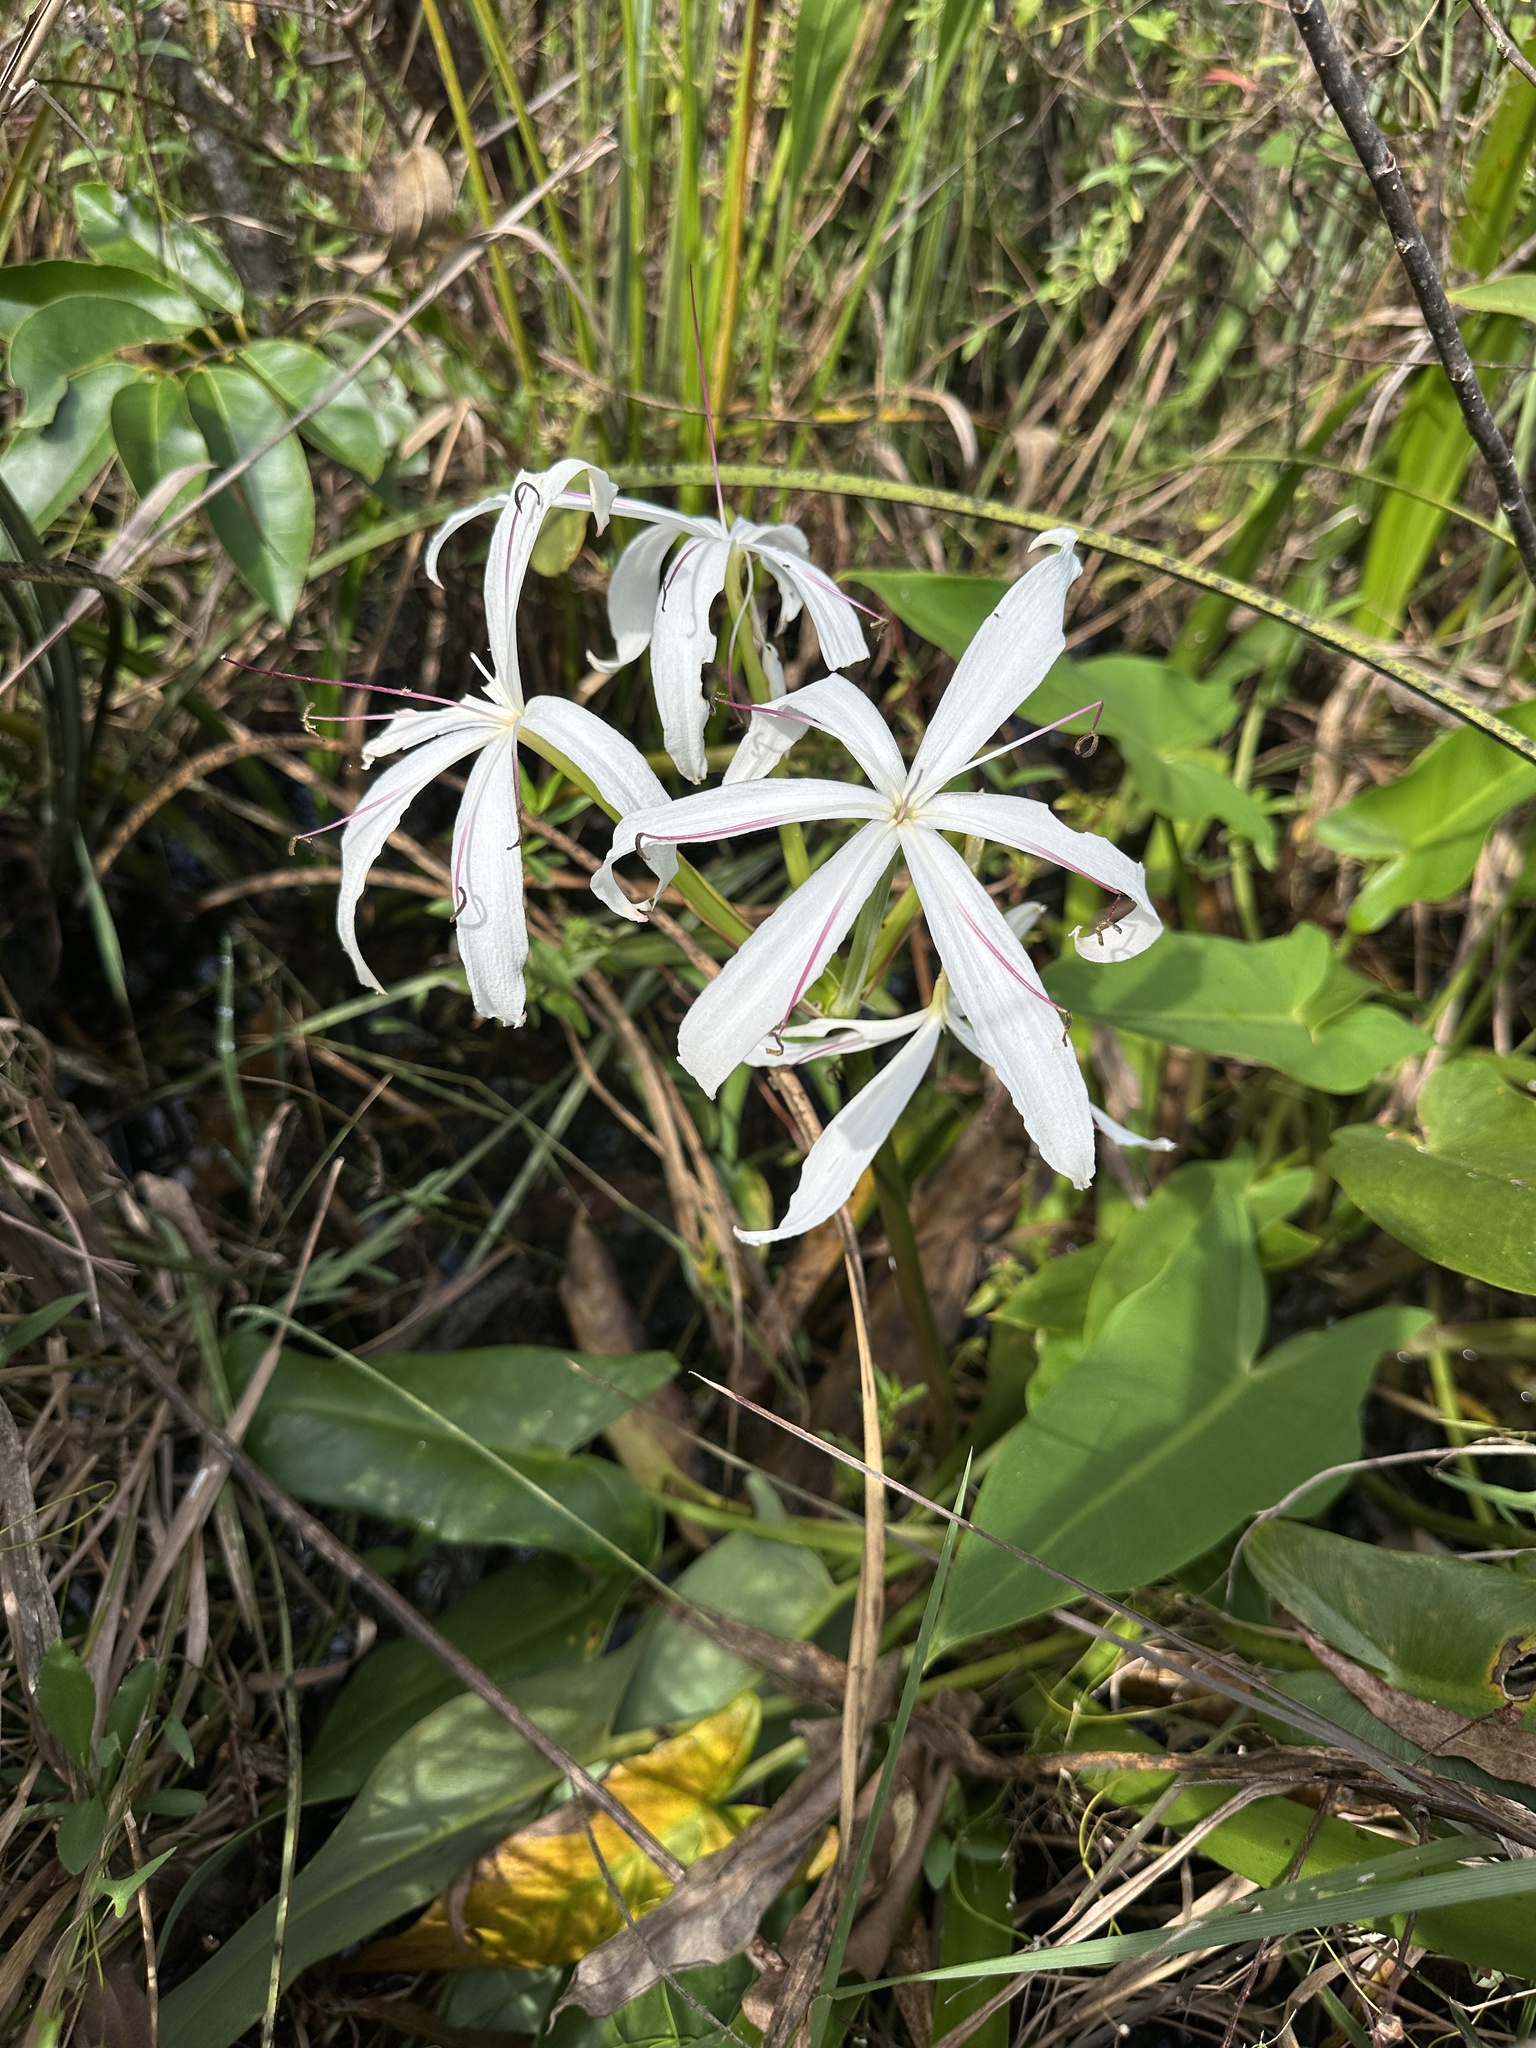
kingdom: Plantae
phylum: Tracheophyta
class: Liliopsida
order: Asparagales
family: Amaryllidaceae
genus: Crinum
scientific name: Crinum americanum
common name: Florida swamp-lily
